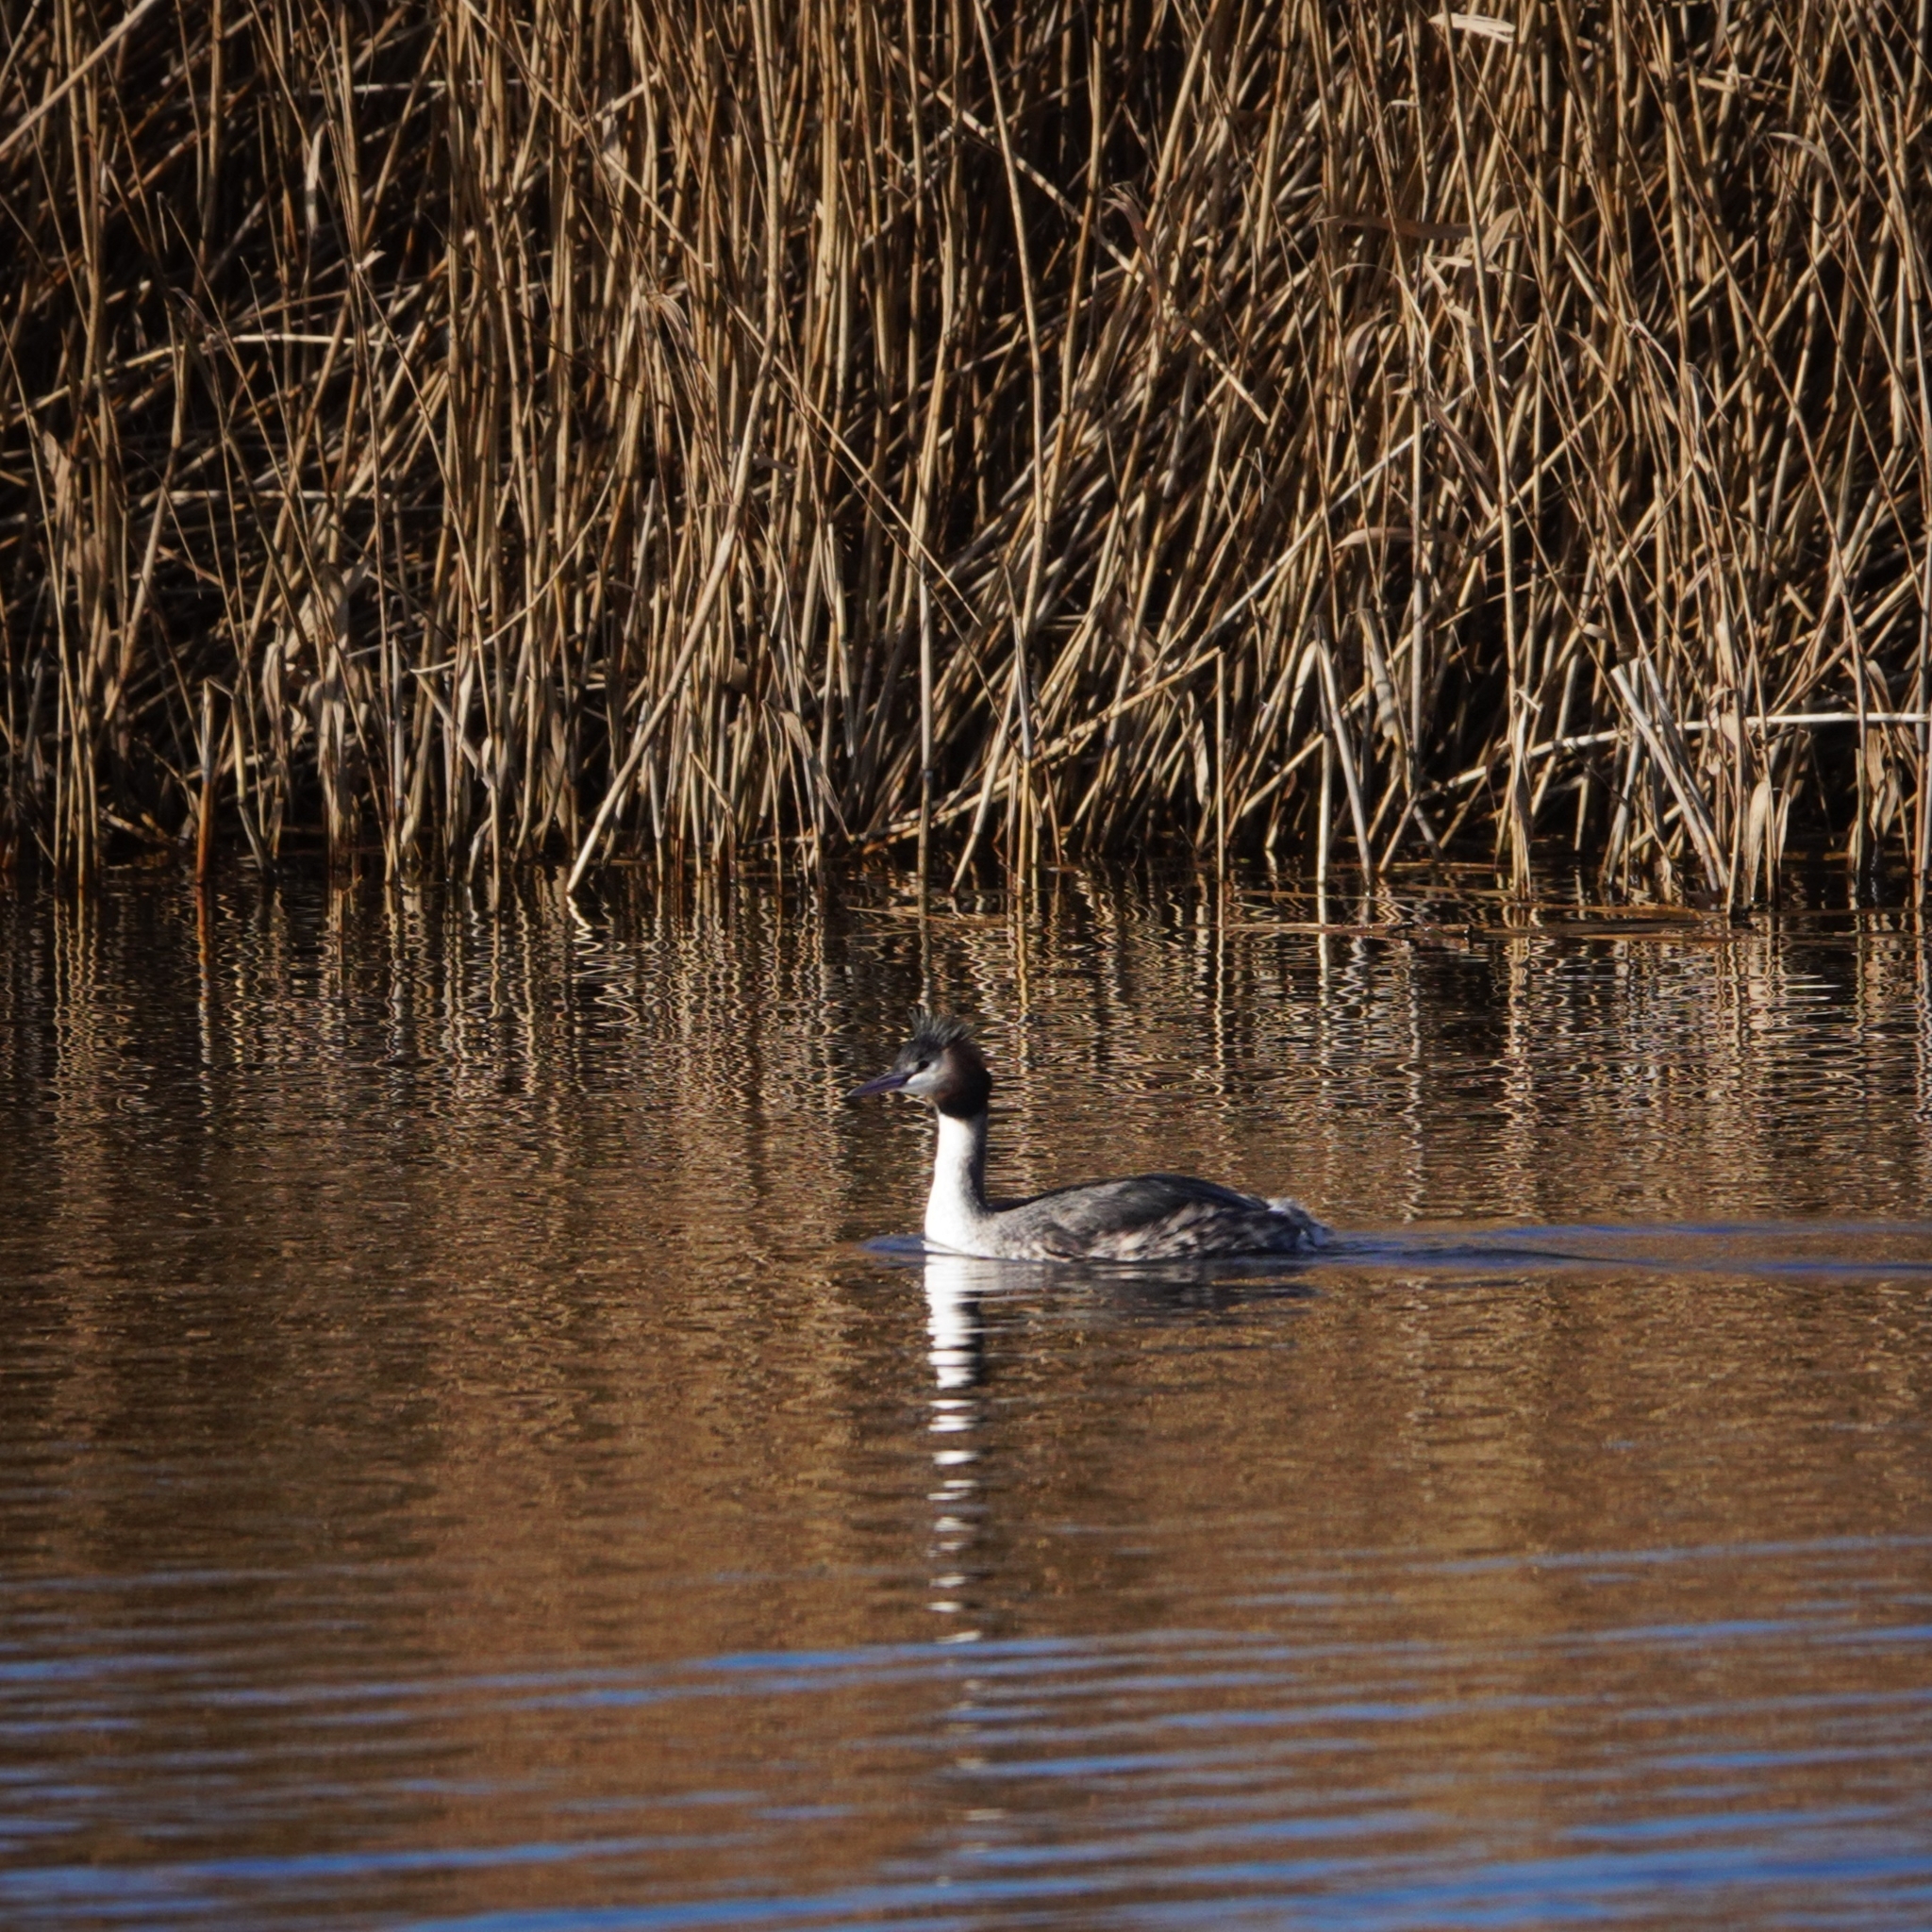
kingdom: Animalia
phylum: Chordata
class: Aves
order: Podicipediformes
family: Podicipedidae
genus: Podiceps
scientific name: Podiceps cristatus
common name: Great crested grebe
